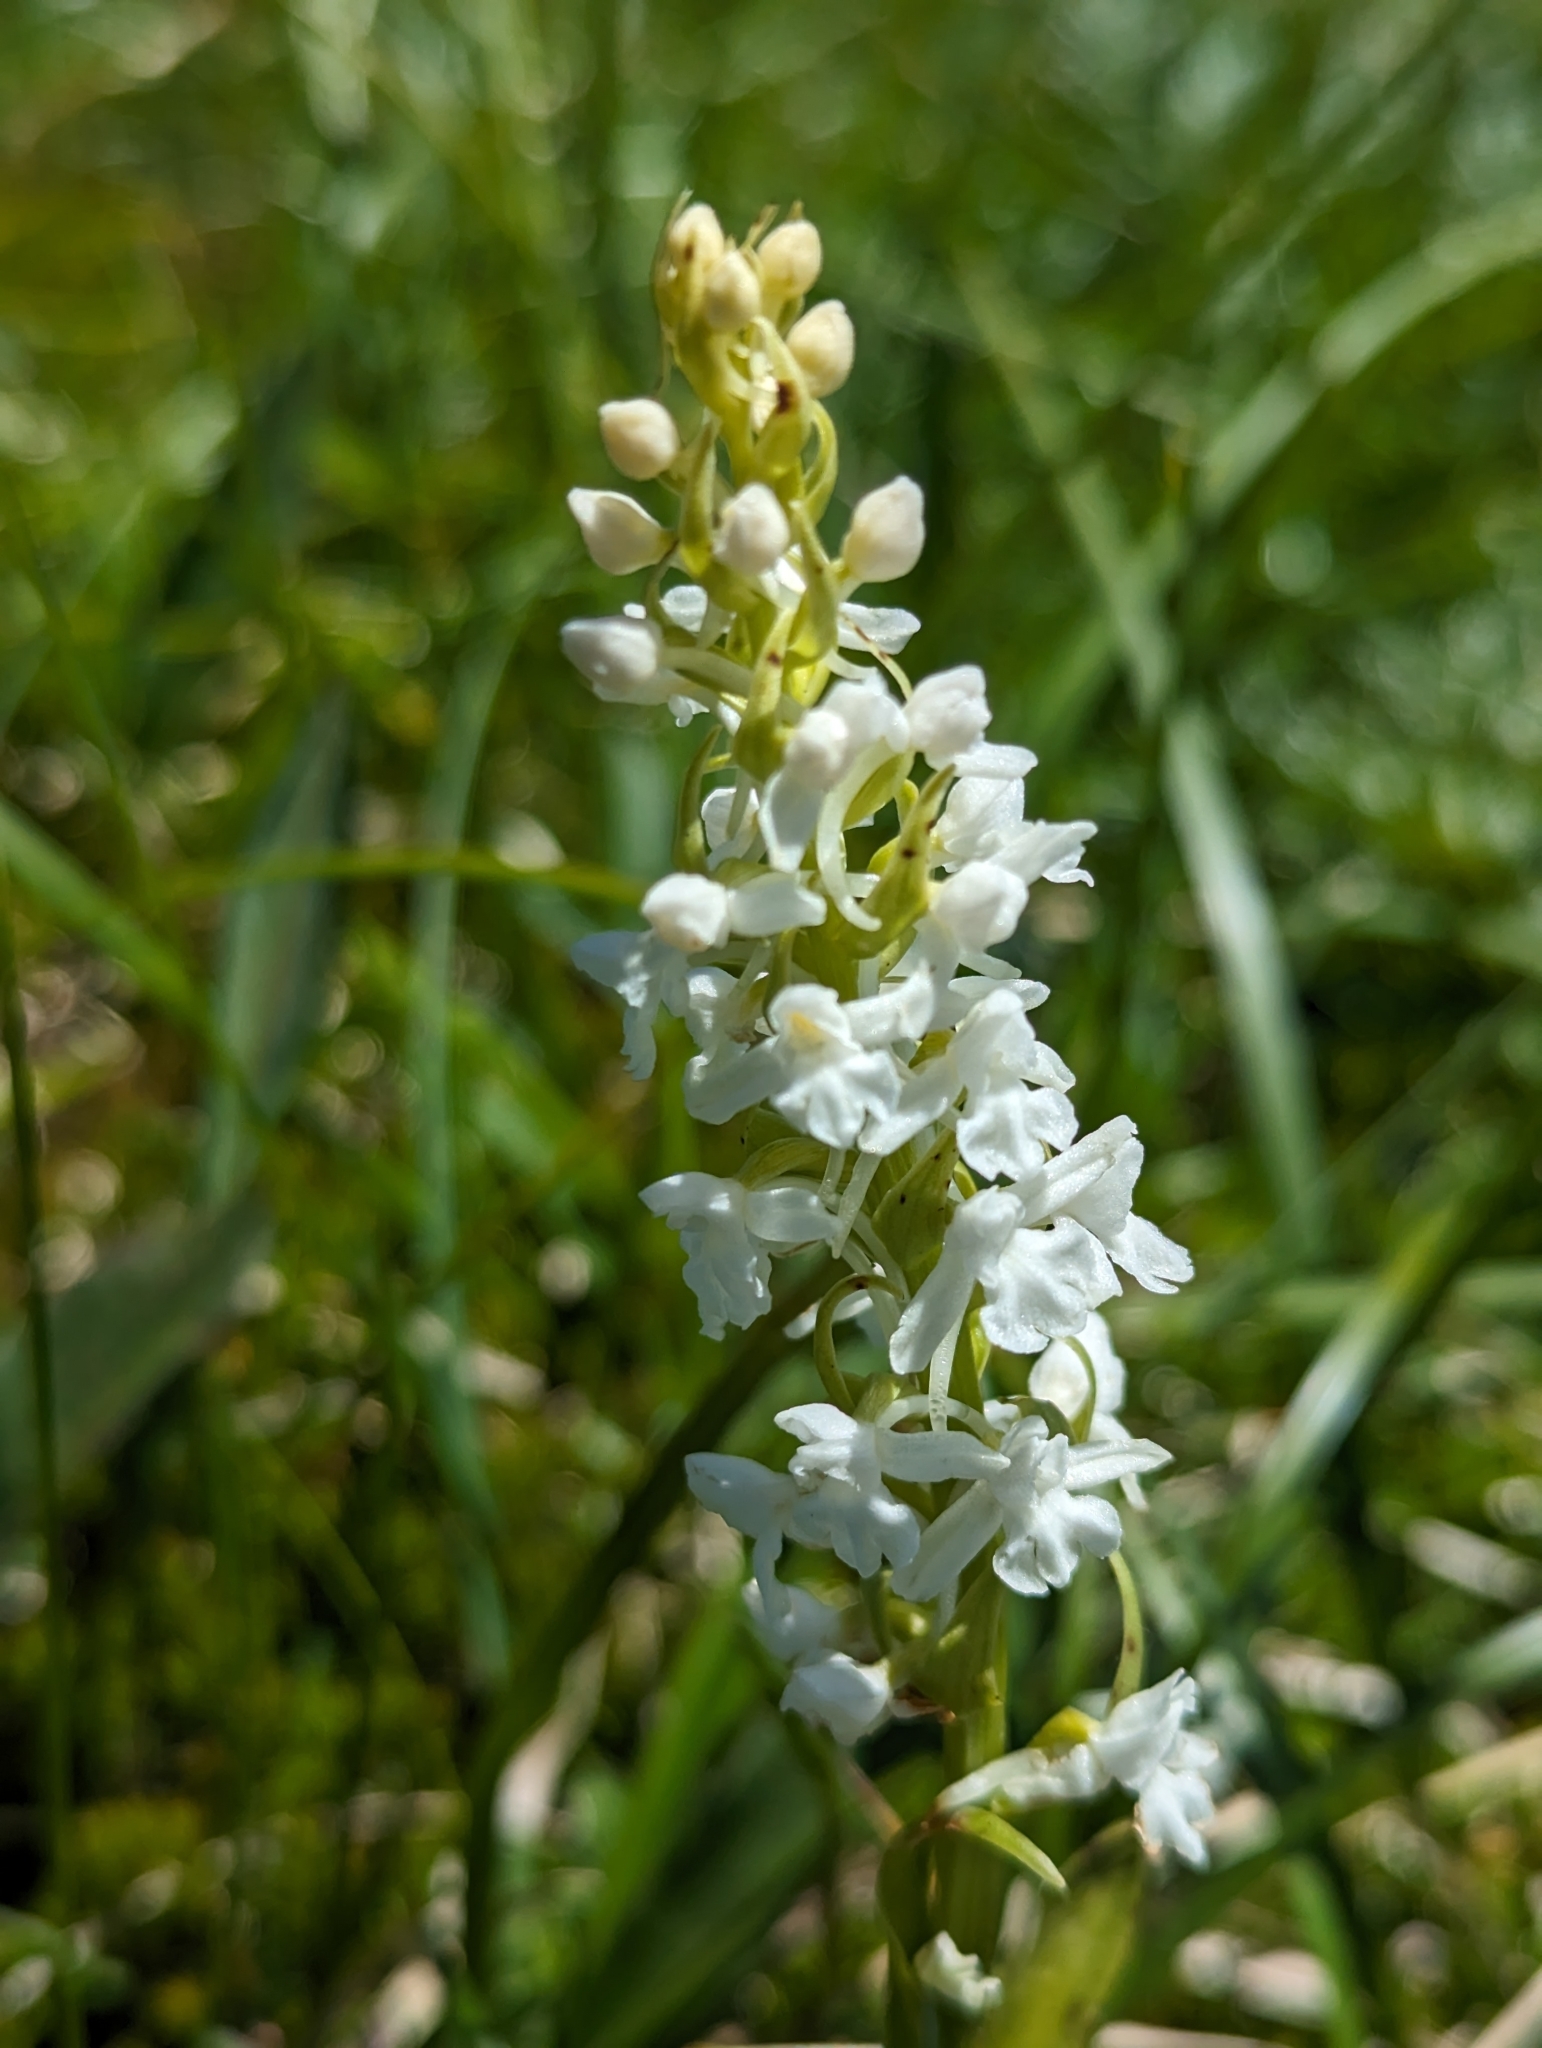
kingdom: Plantae
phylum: Tracheophyta
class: Liliopsida
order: Asparagales
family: Orchidaceae
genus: Gymnadenia
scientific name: Gymnadenia conopsea
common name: Fragrant orchid
